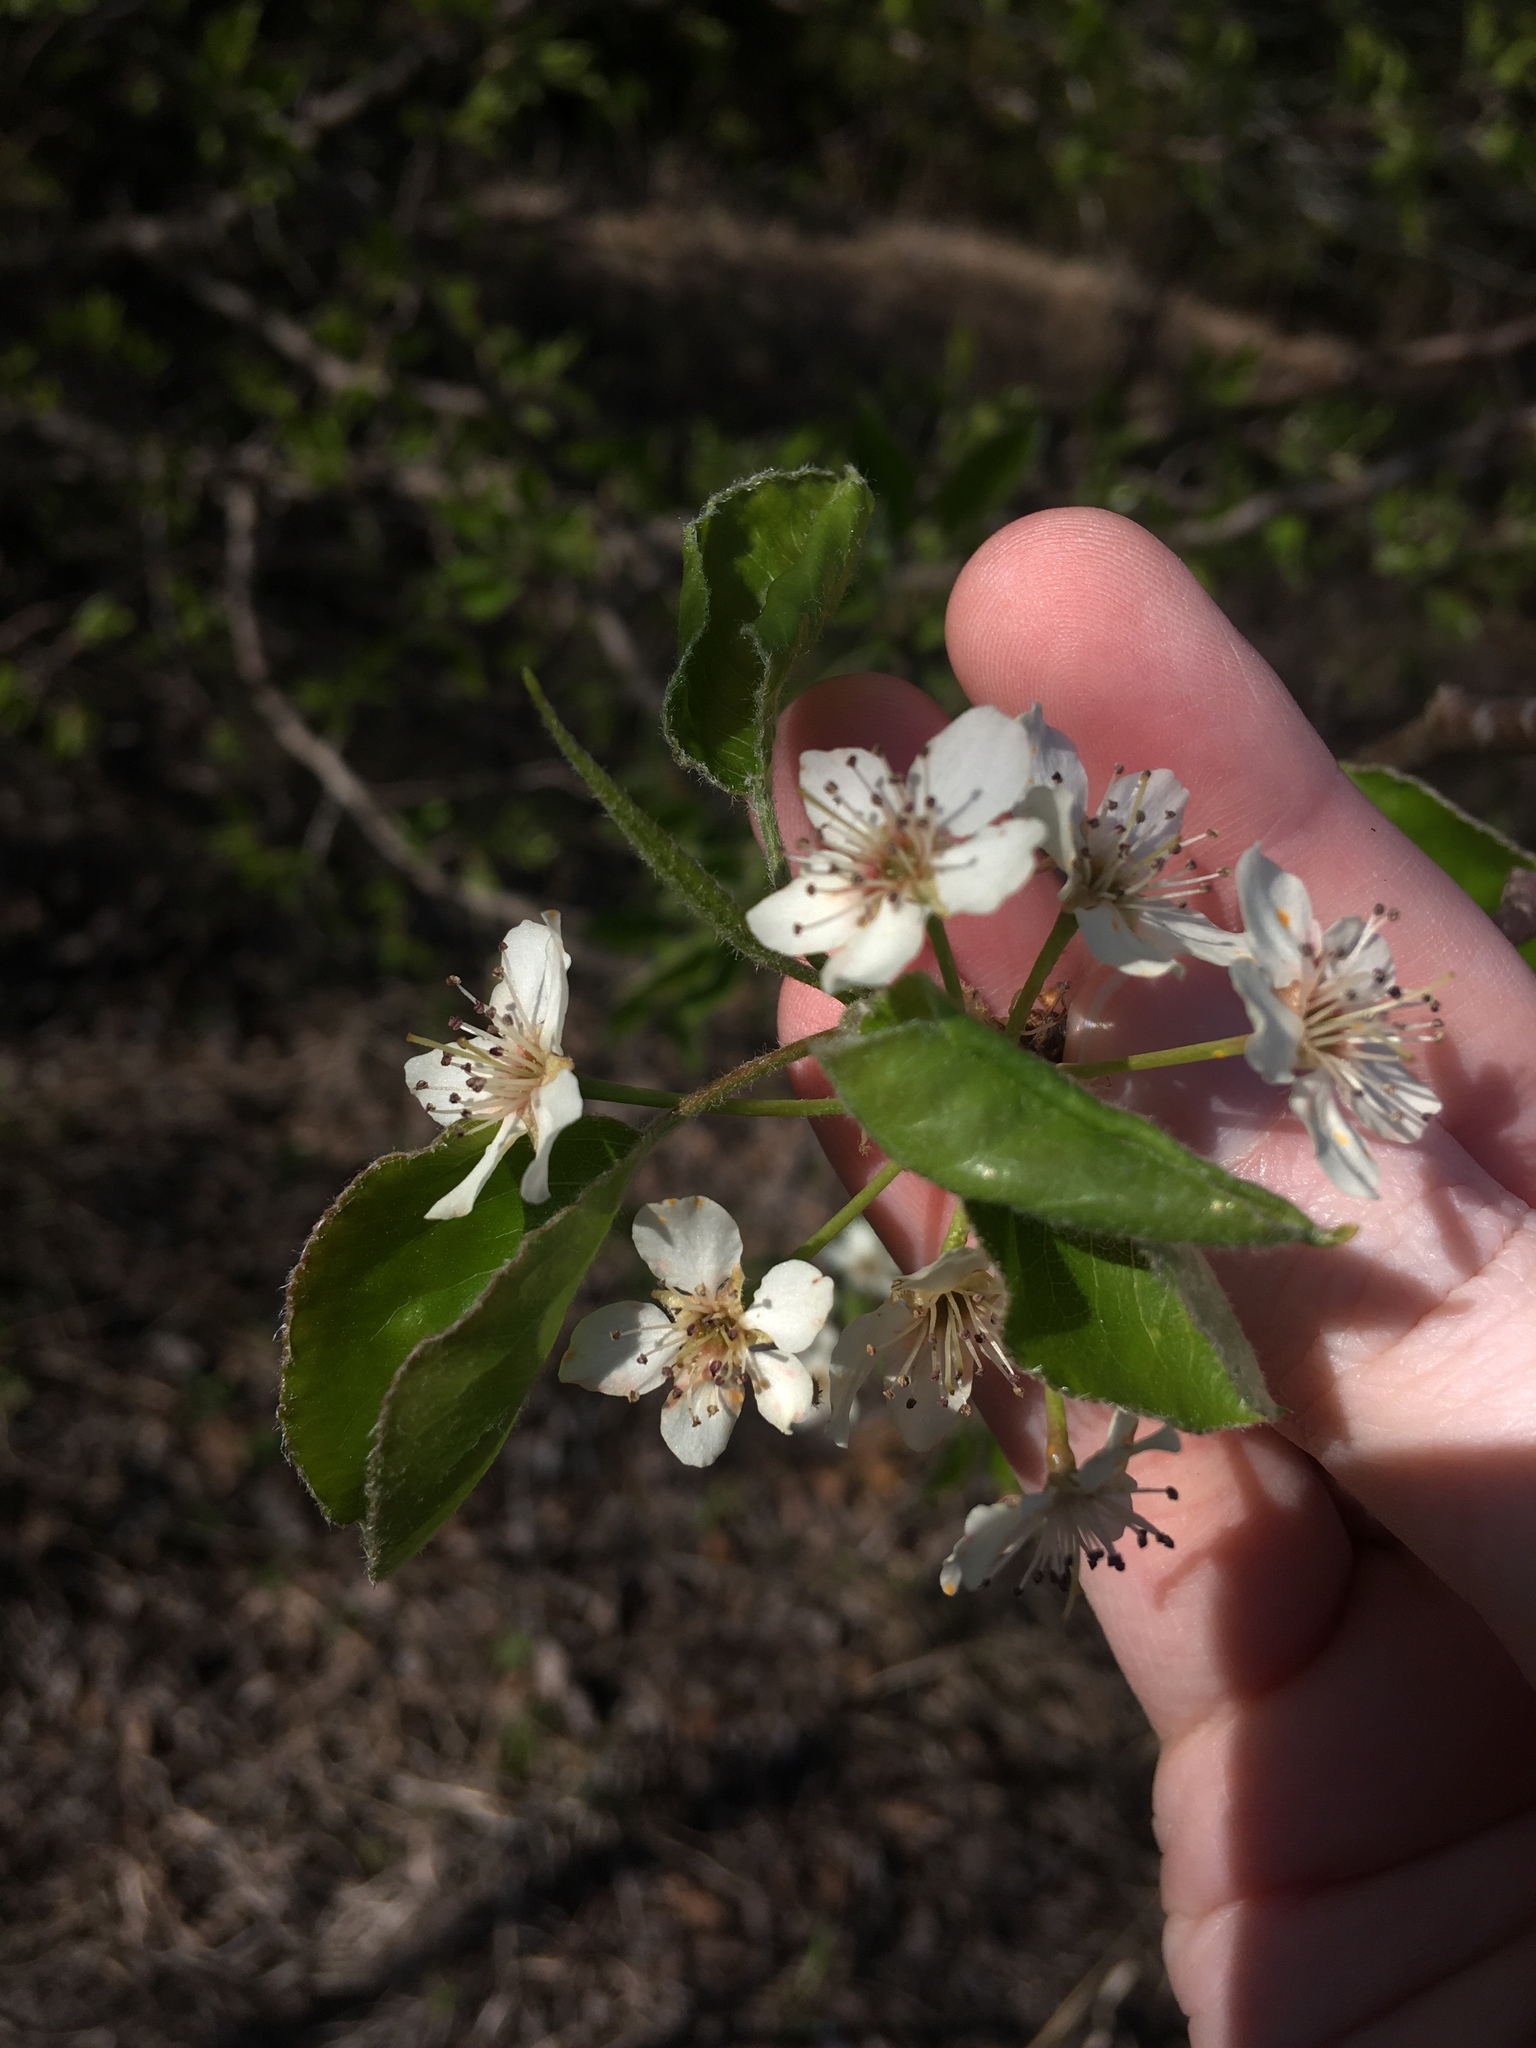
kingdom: Plantae
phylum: Tracheophyta
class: Magnoliopsida
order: Rosales
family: Rosaceae
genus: Pyrus
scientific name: Pyrus calleryana
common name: Callery pear
